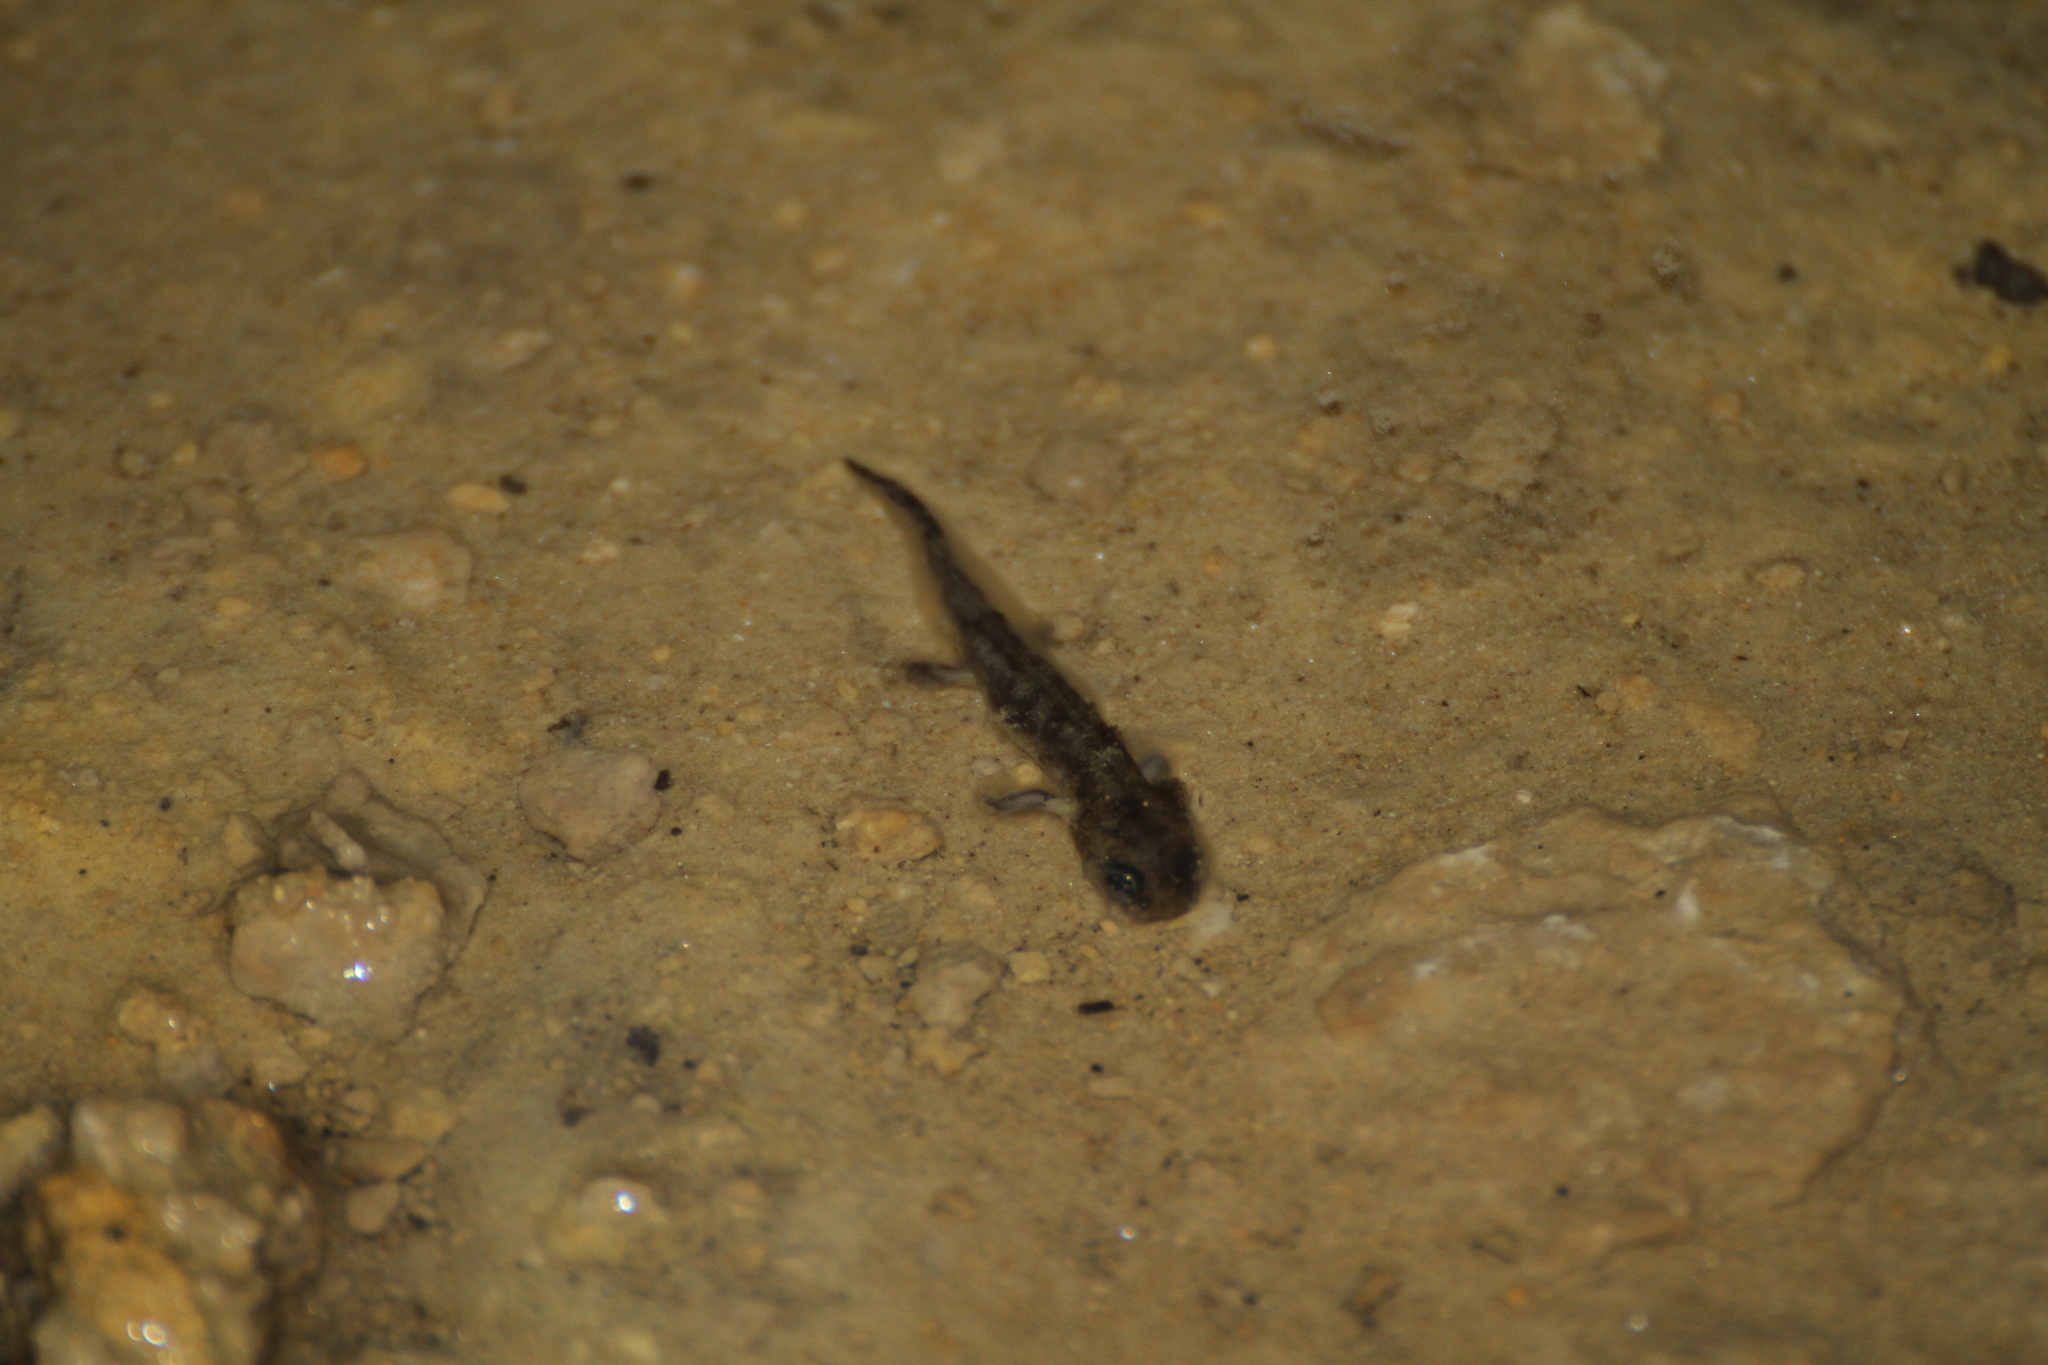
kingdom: Animalia
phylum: Chordata
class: Amphibia
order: Caudata
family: Salamandridae
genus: Salamandra
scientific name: Salamandra salamandra
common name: Fire salamander
